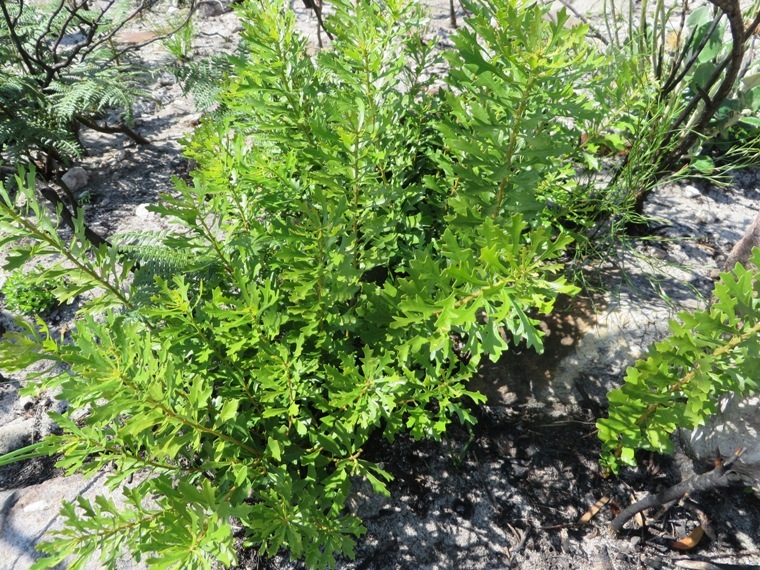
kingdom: Plantae
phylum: Tracheophyta
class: Magnoliopsida
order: Fagales
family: Myricaceae
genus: Morella
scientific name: Morella quercifolia
